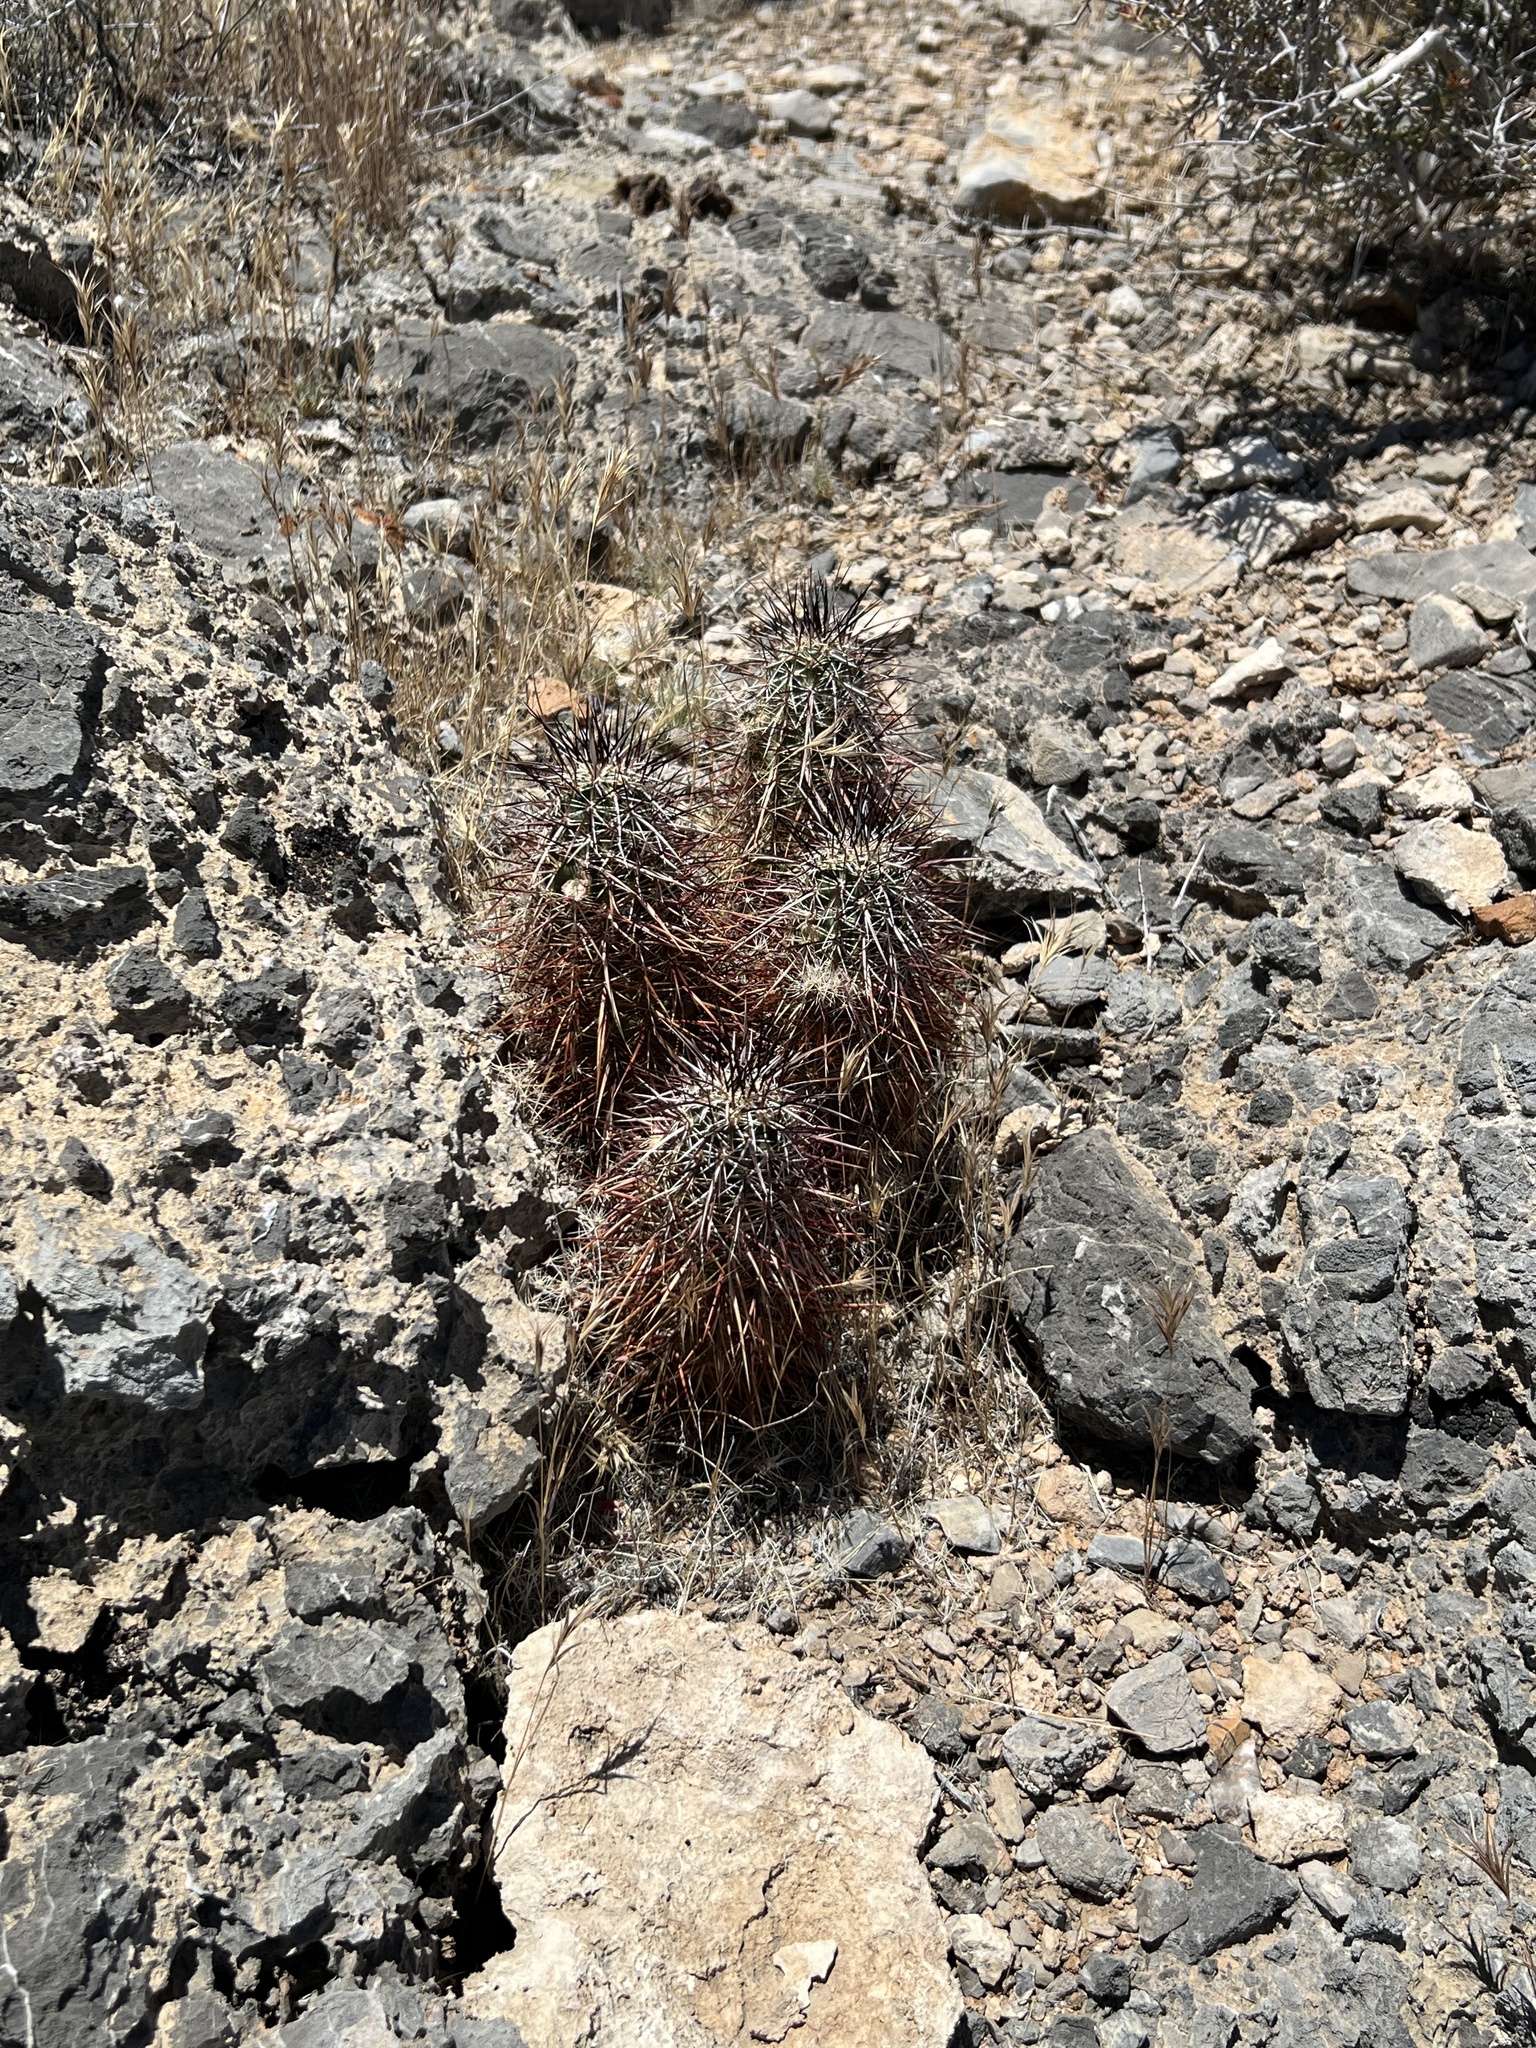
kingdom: Plantae
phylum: Tracheophyta
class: Magnoliopsida
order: Caryophyllales
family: Cactaceae
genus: Echinocereus
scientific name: Echinocereus engelmannii
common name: Engelmann's hedgehog cactus
